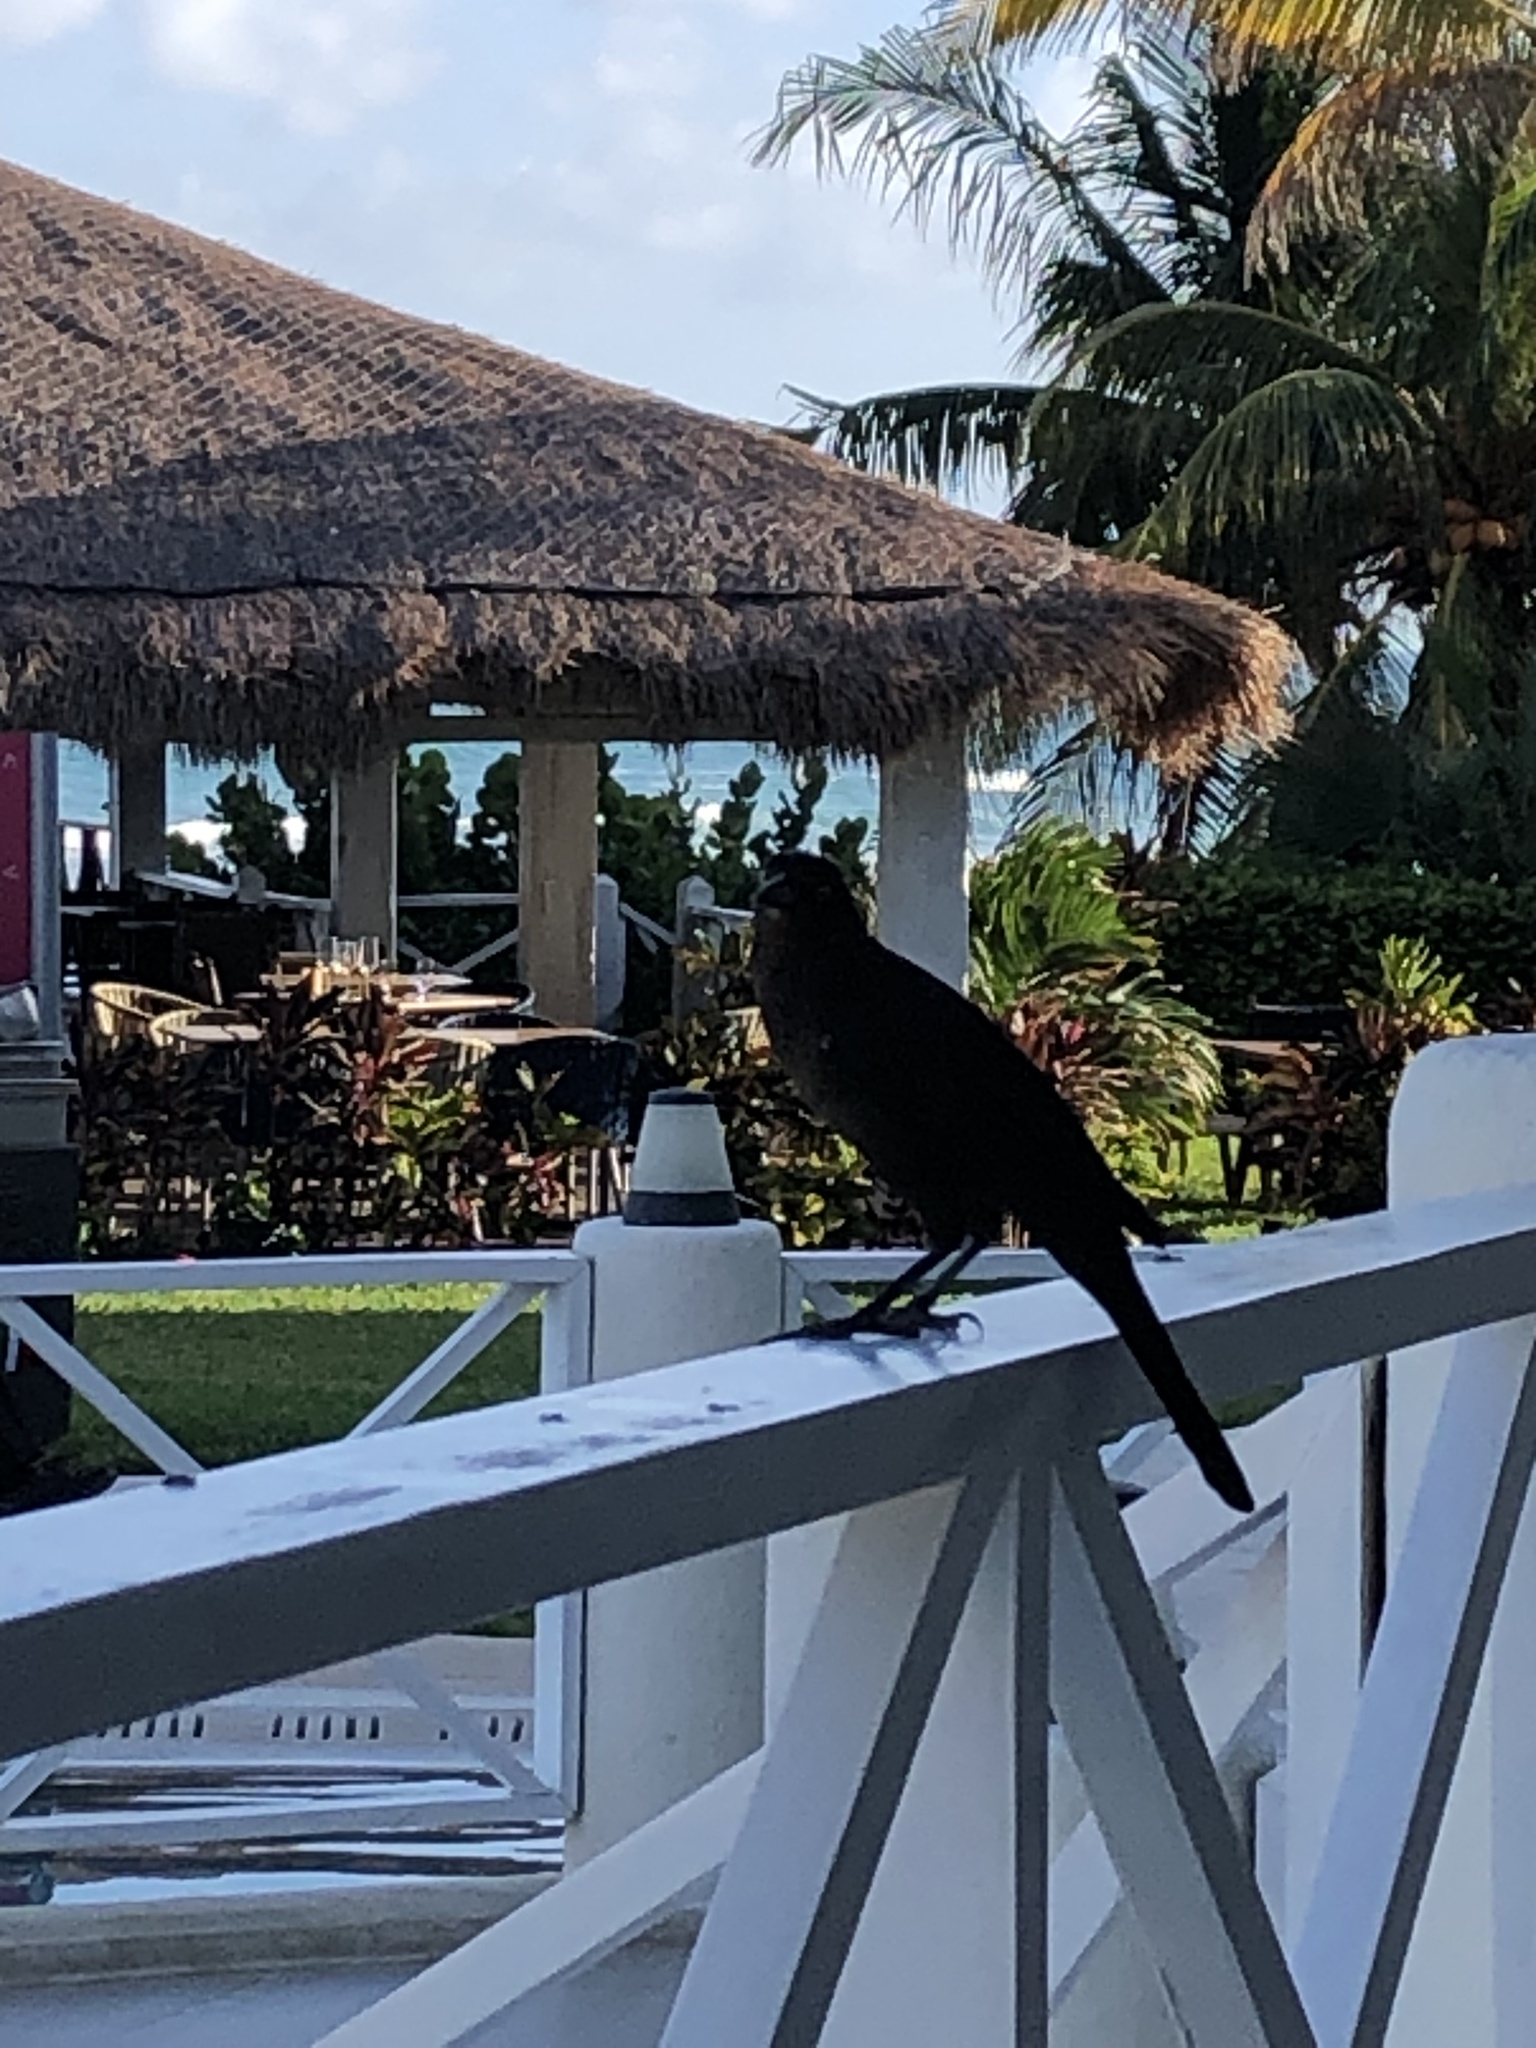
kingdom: Animalia
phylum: Chordata
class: Aves
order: Passeriformes
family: Icteridae
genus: Quiscalus
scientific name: Quiscalus mexicanus
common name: Great-tailed grackle
